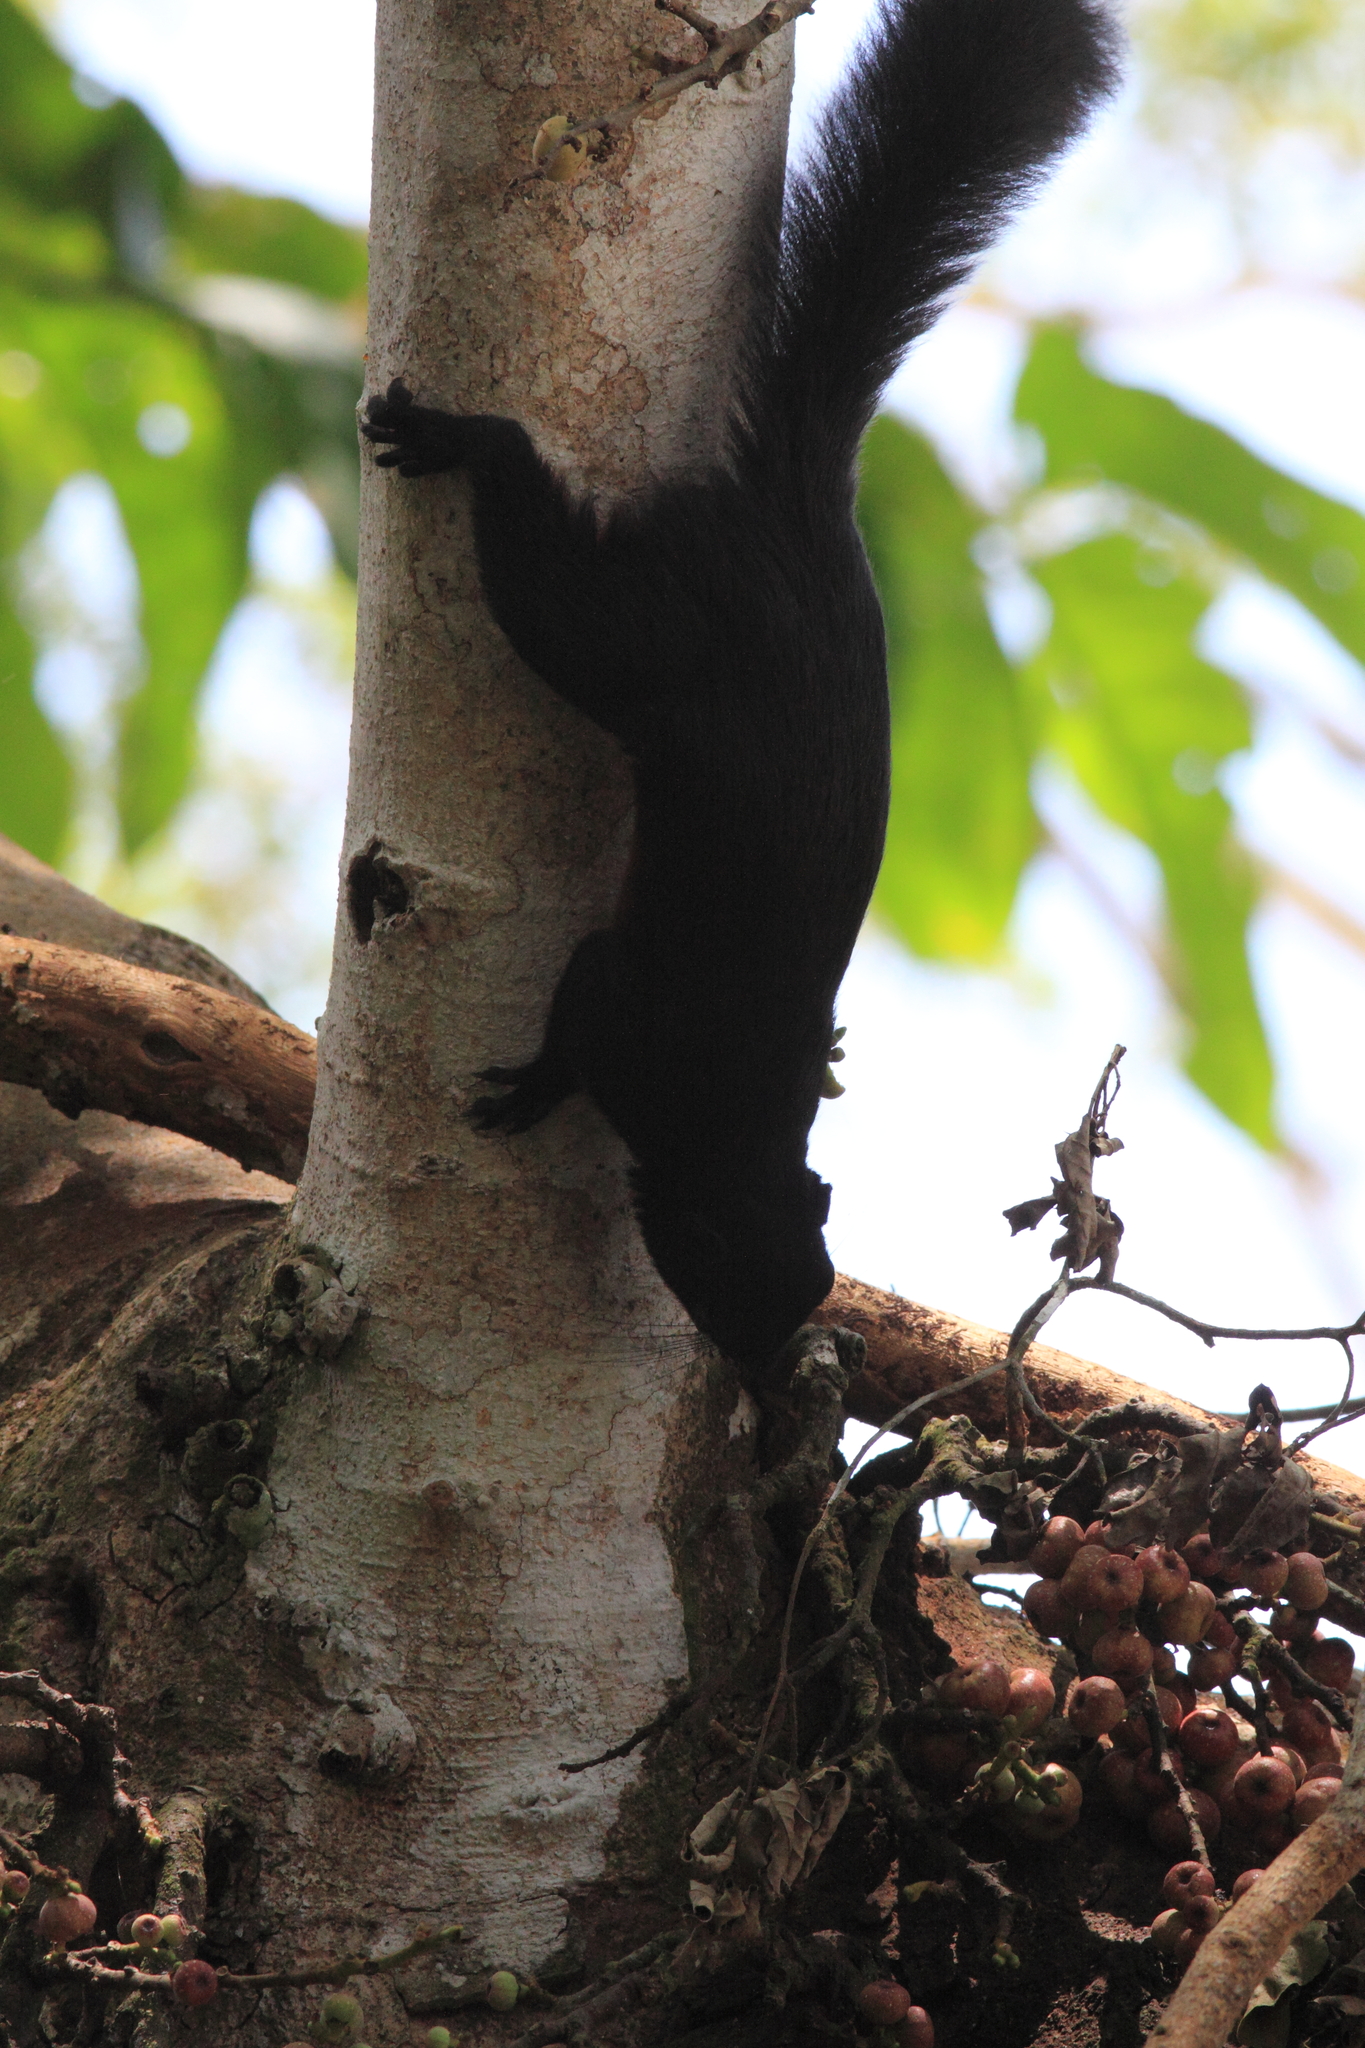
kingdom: Animalia
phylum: Chordata
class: Mammalia
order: Rodentia
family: Sciuridae
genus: Callosciurus
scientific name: Callosciurus prevostii
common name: Prevost's squirrel
